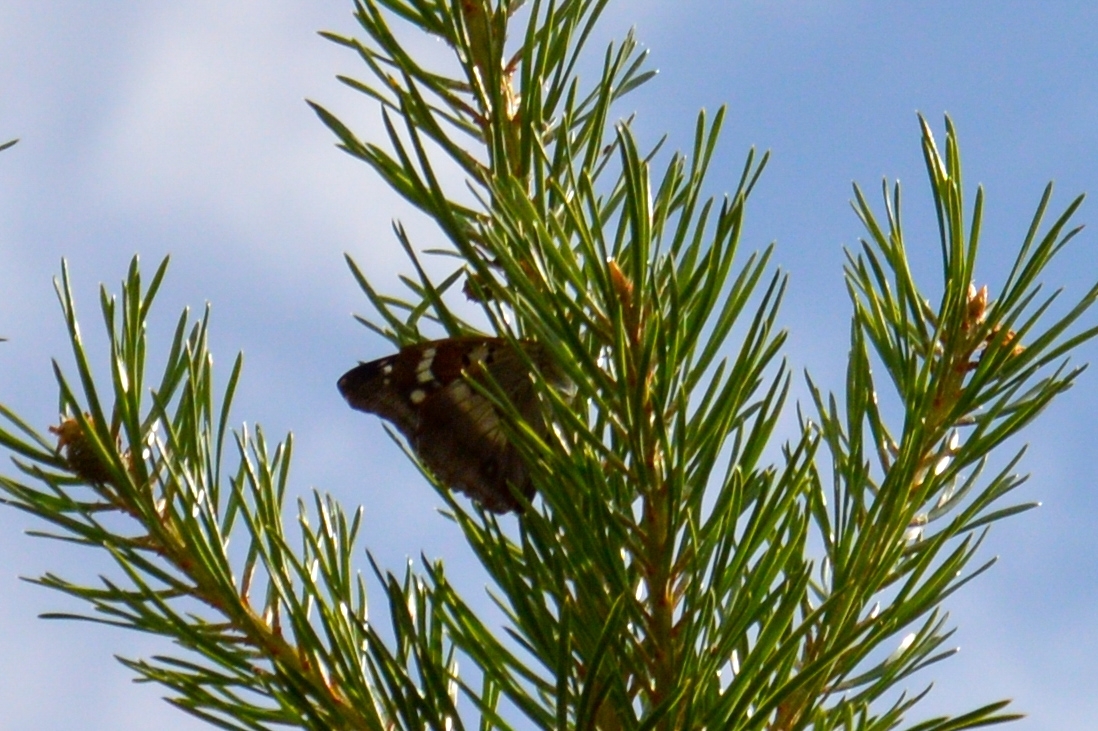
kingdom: Animalia
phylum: Arthropoda
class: Insecta
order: Lepidoptera
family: Nymphalidae
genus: Apatura
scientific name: Apatura ilia
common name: Lesser purple emperor
